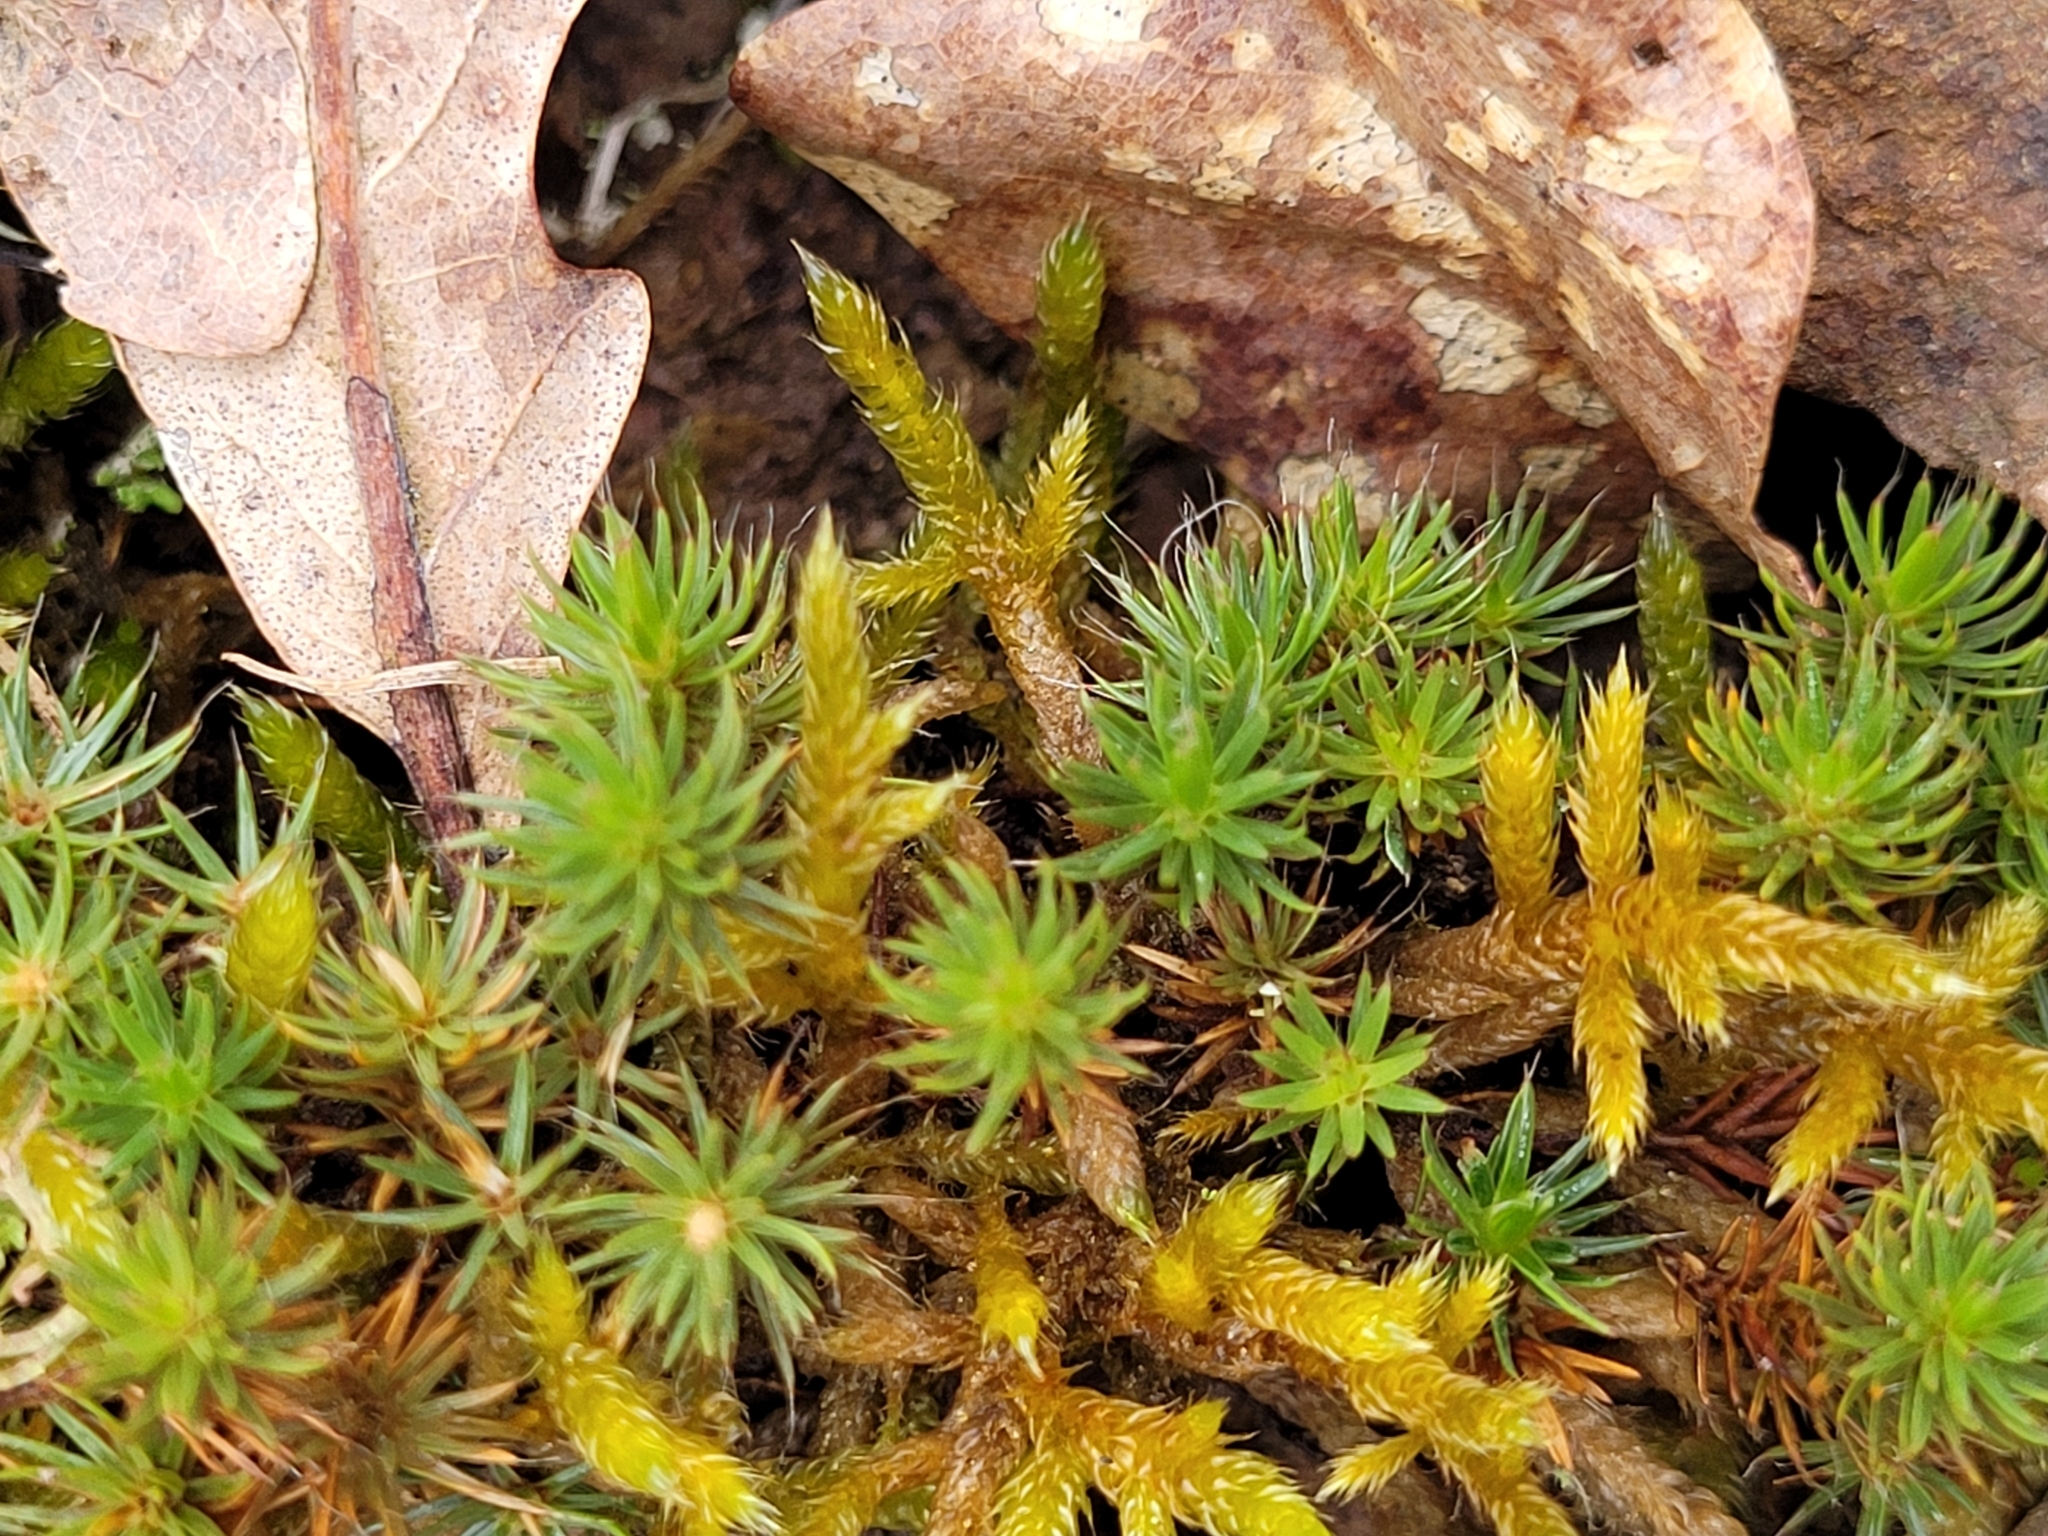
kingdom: Plantae
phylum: Bryophyta
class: Polytrichopsida
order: Polytrichales
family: Polytrichaceae
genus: Polytrichum
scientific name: Polytrichum piliferum
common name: Bristly haircap
